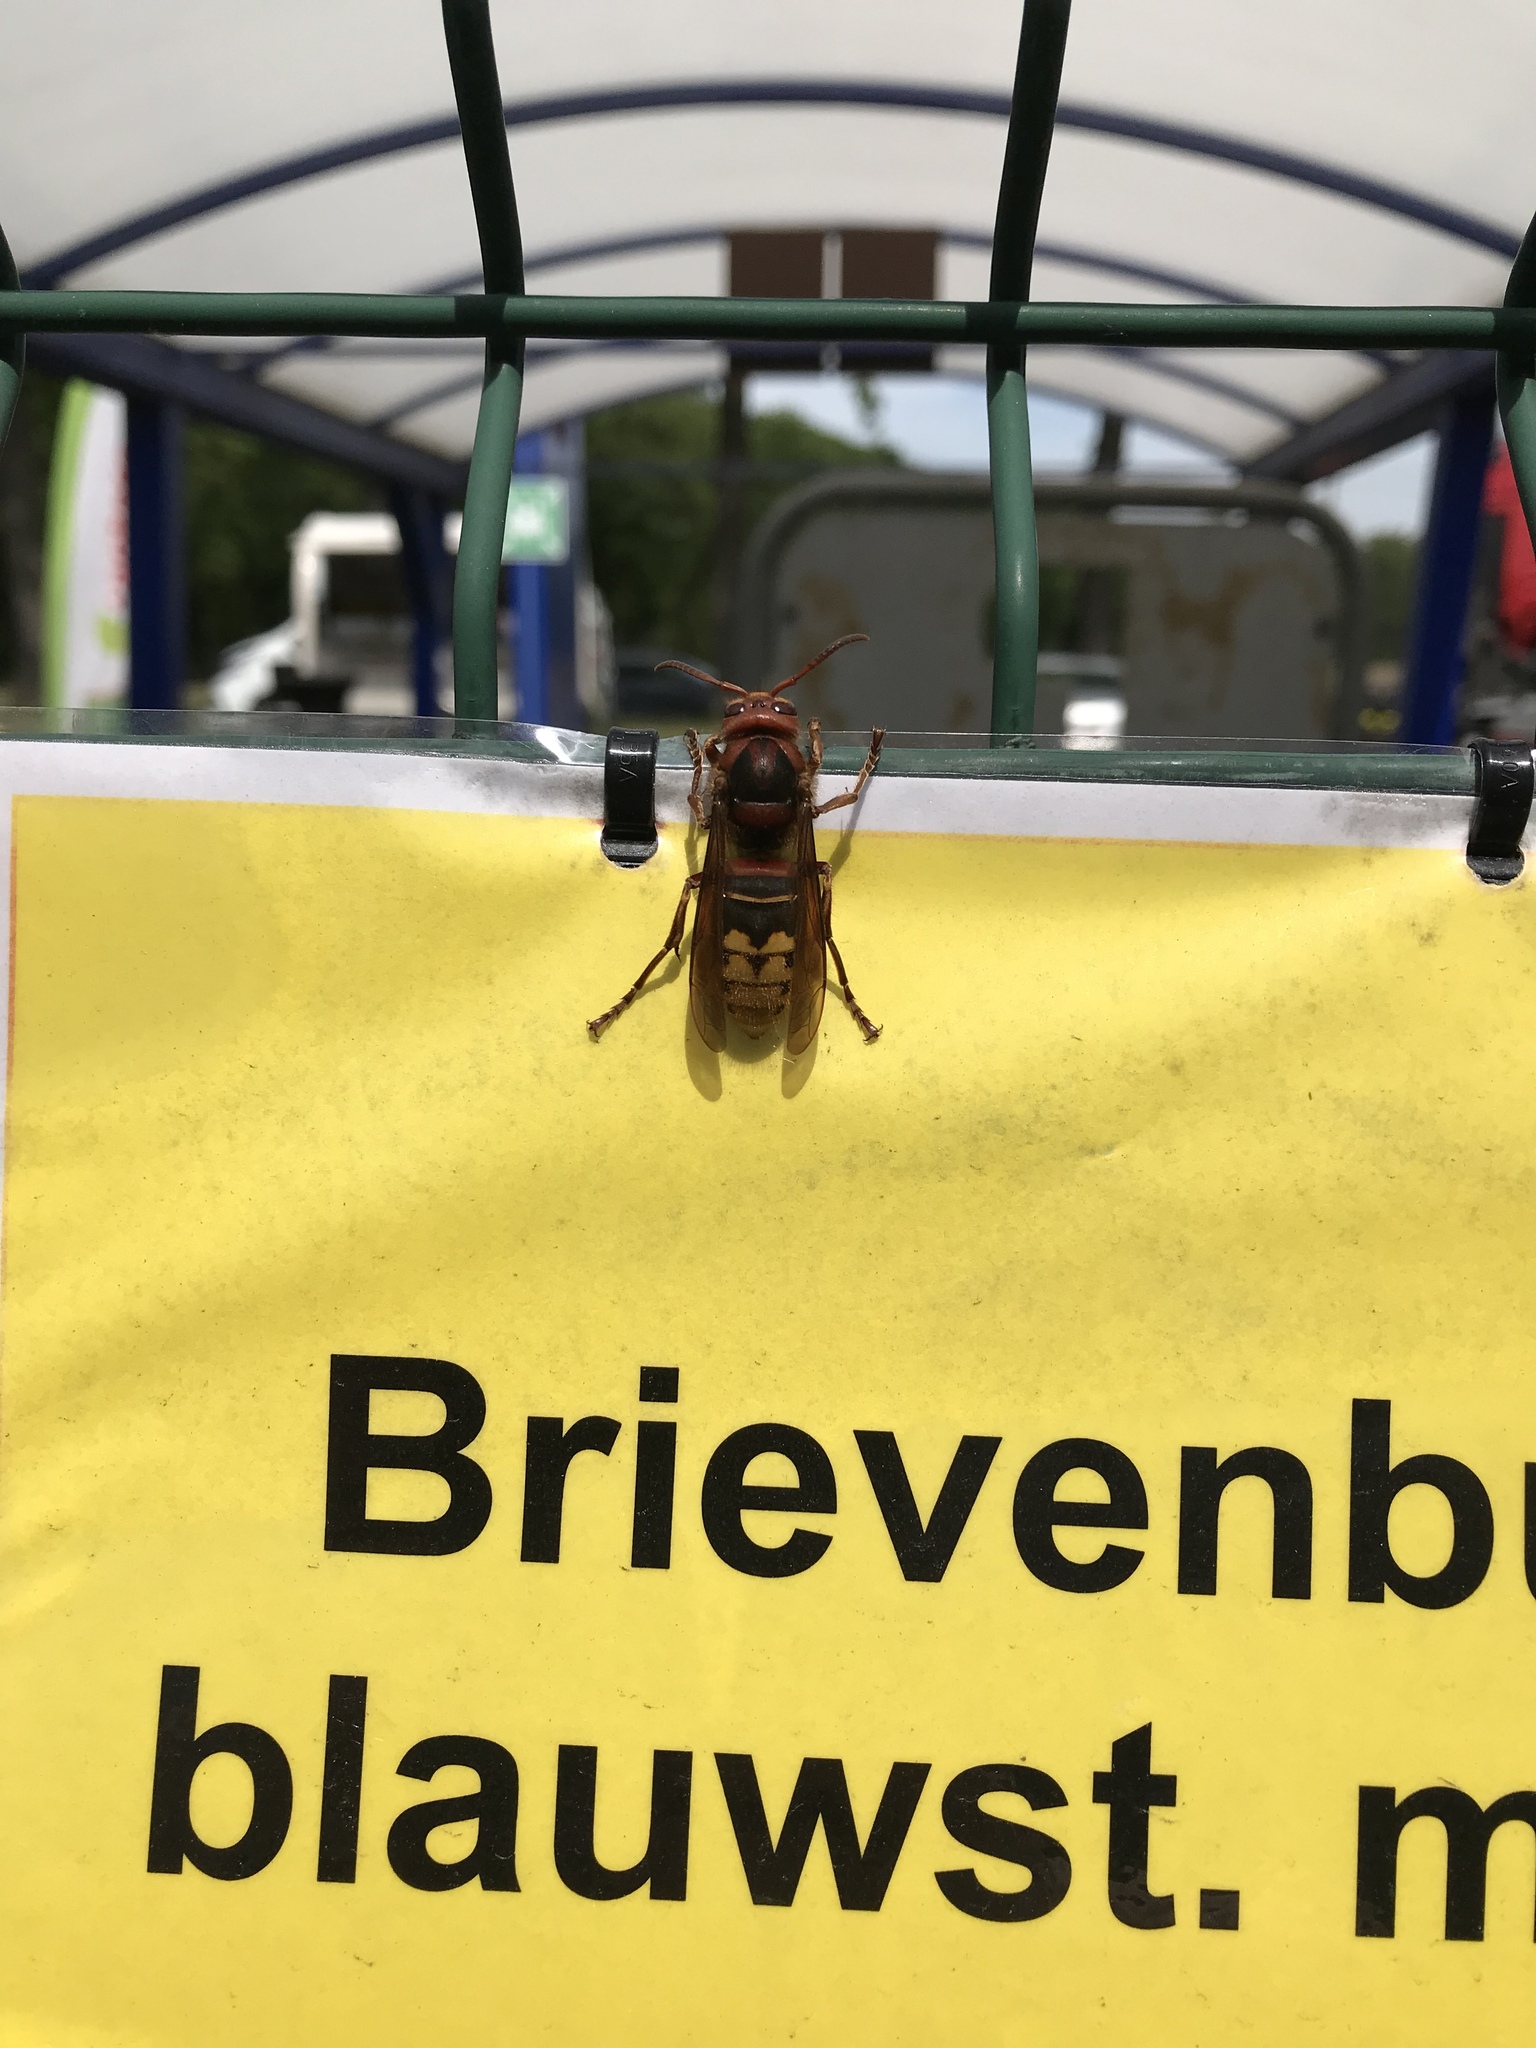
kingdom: Animalia
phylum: Arthropoda
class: Insecta
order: Hymenoptera
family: Vespidae
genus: Vespa
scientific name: Vespa crabro
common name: Hornet
